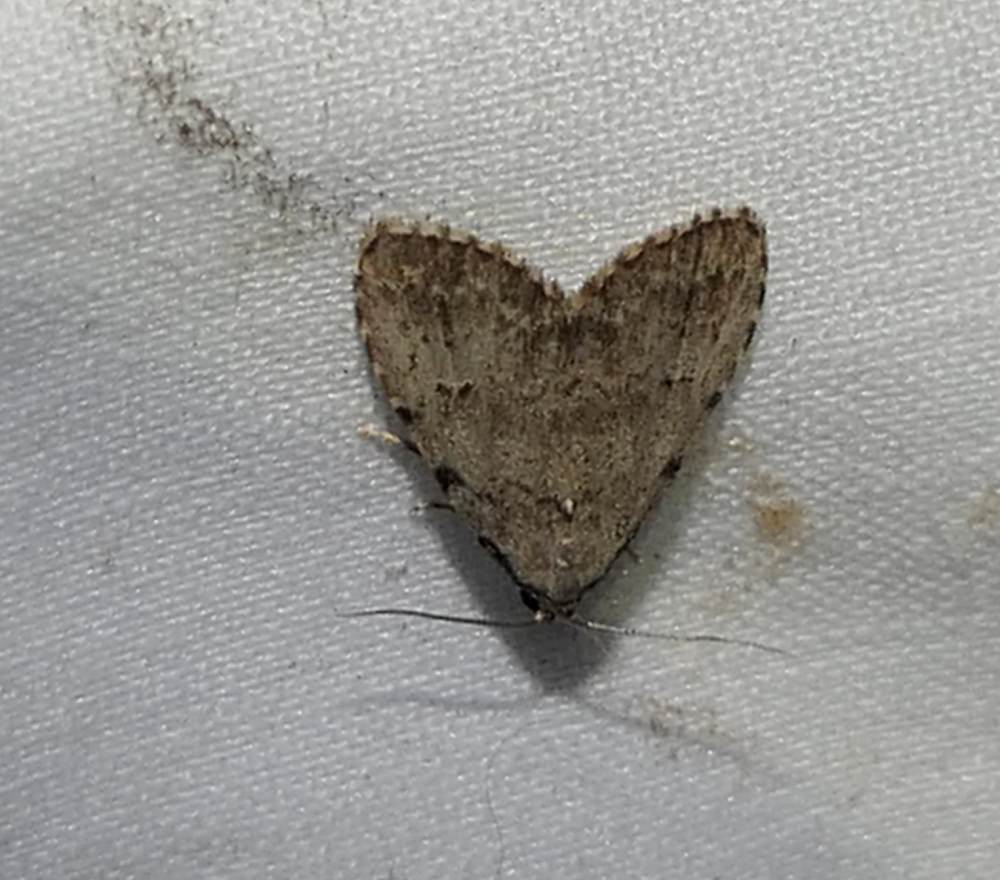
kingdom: Animalia
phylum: Arthropoda
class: Insecta
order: Lepidoptera
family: Erebidae
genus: Dyspyralis
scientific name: Dyspyralis puncticosta
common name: Spot-edged dyspyralis moth
